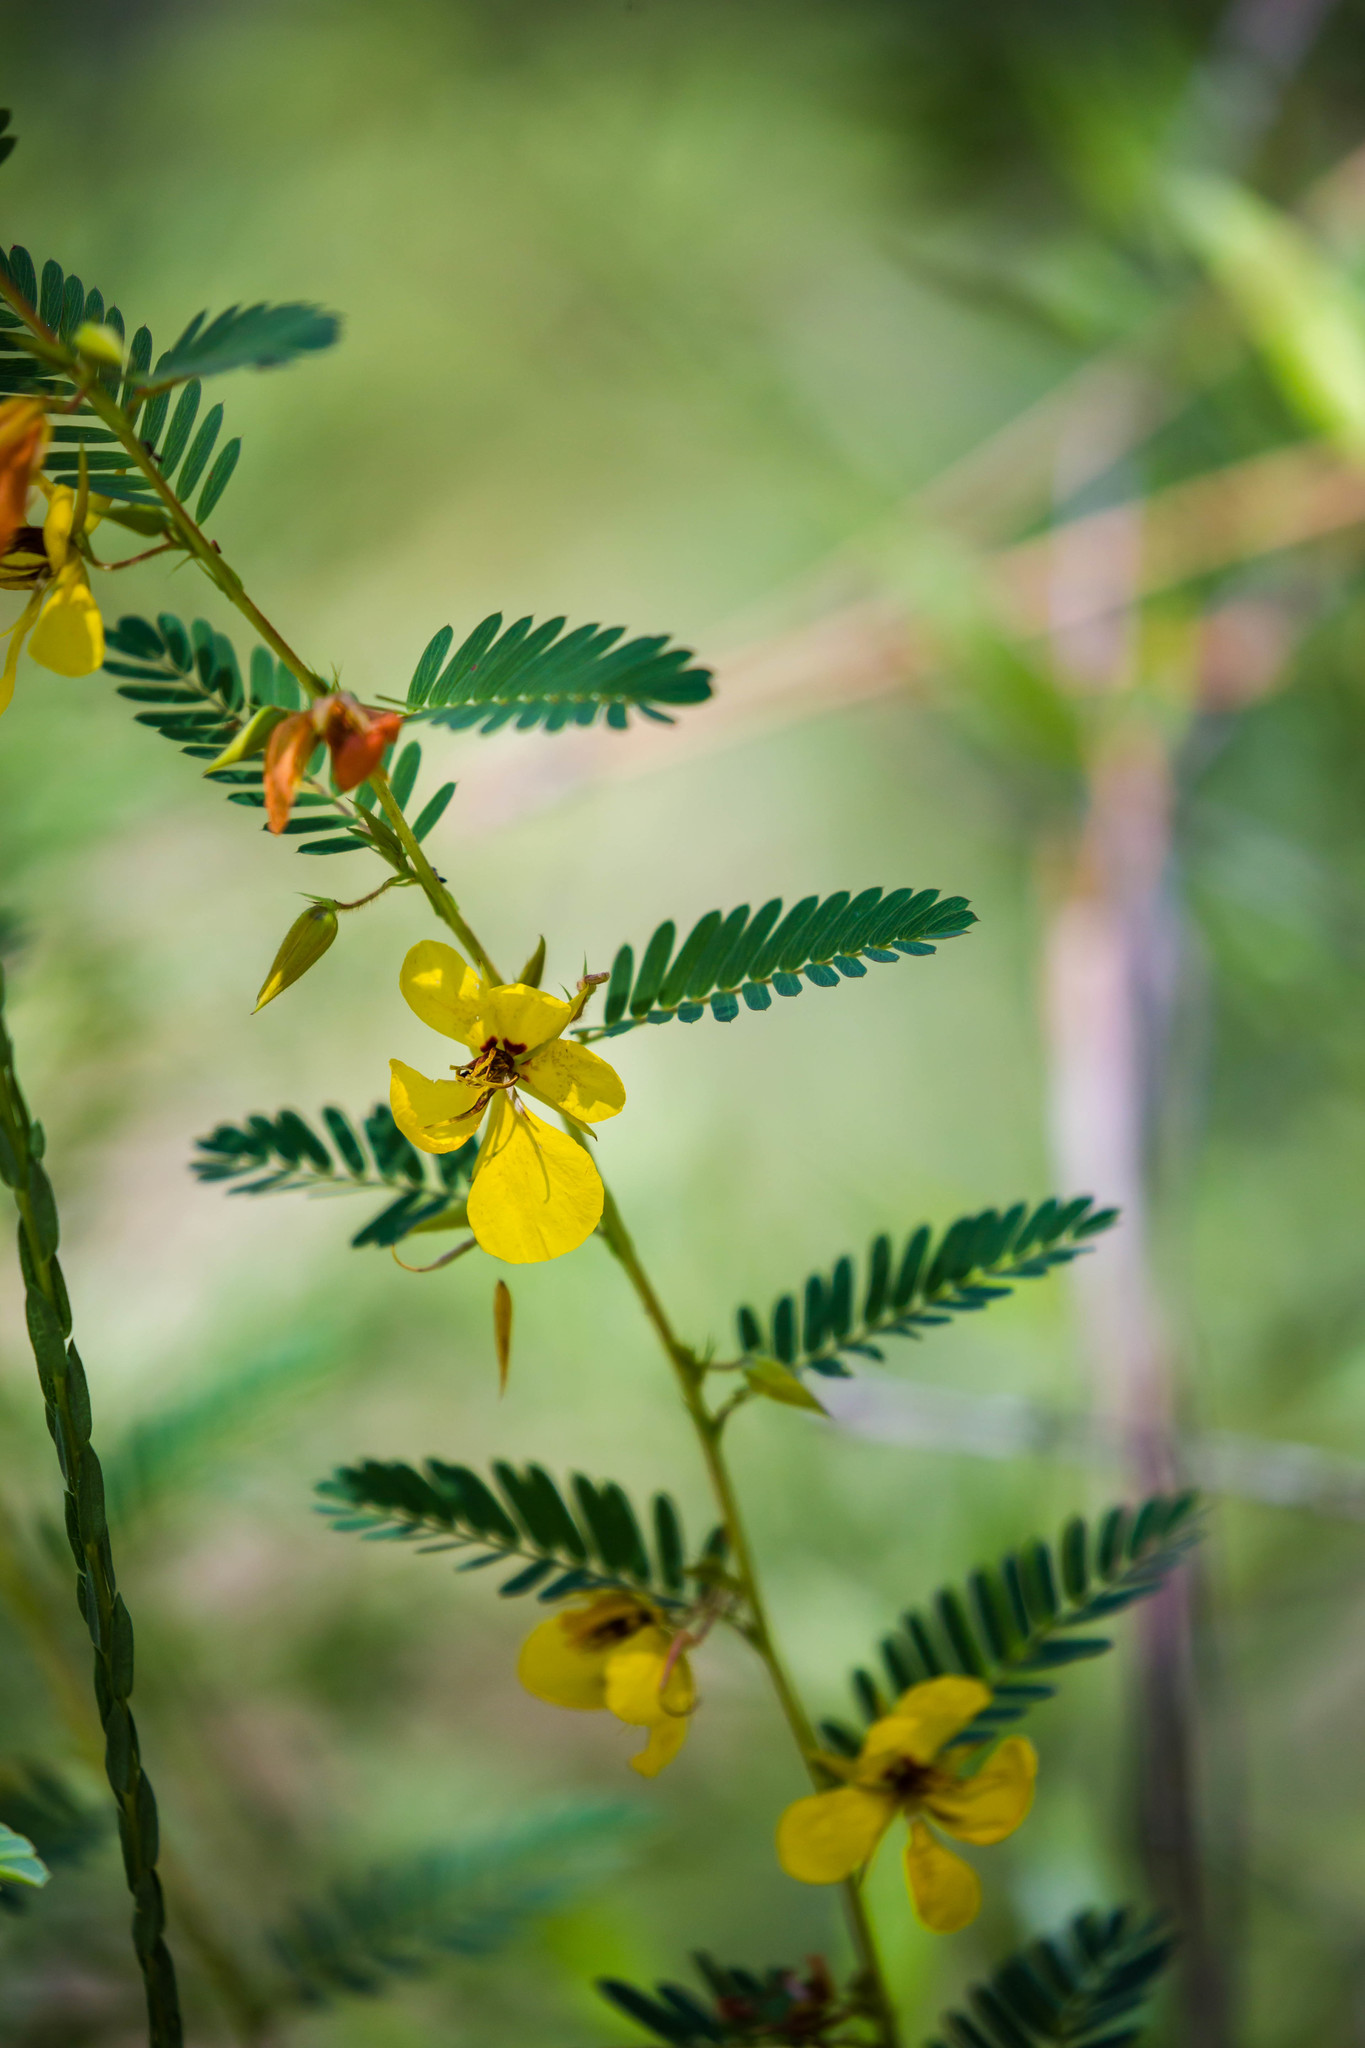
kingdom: Plantae
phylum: Tracheophyta
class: Magnoliopsida
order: Fabales
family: Fabaceae
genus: Chamaecrista
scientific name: Chamaecrista fasciculata
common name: Golden cassia
